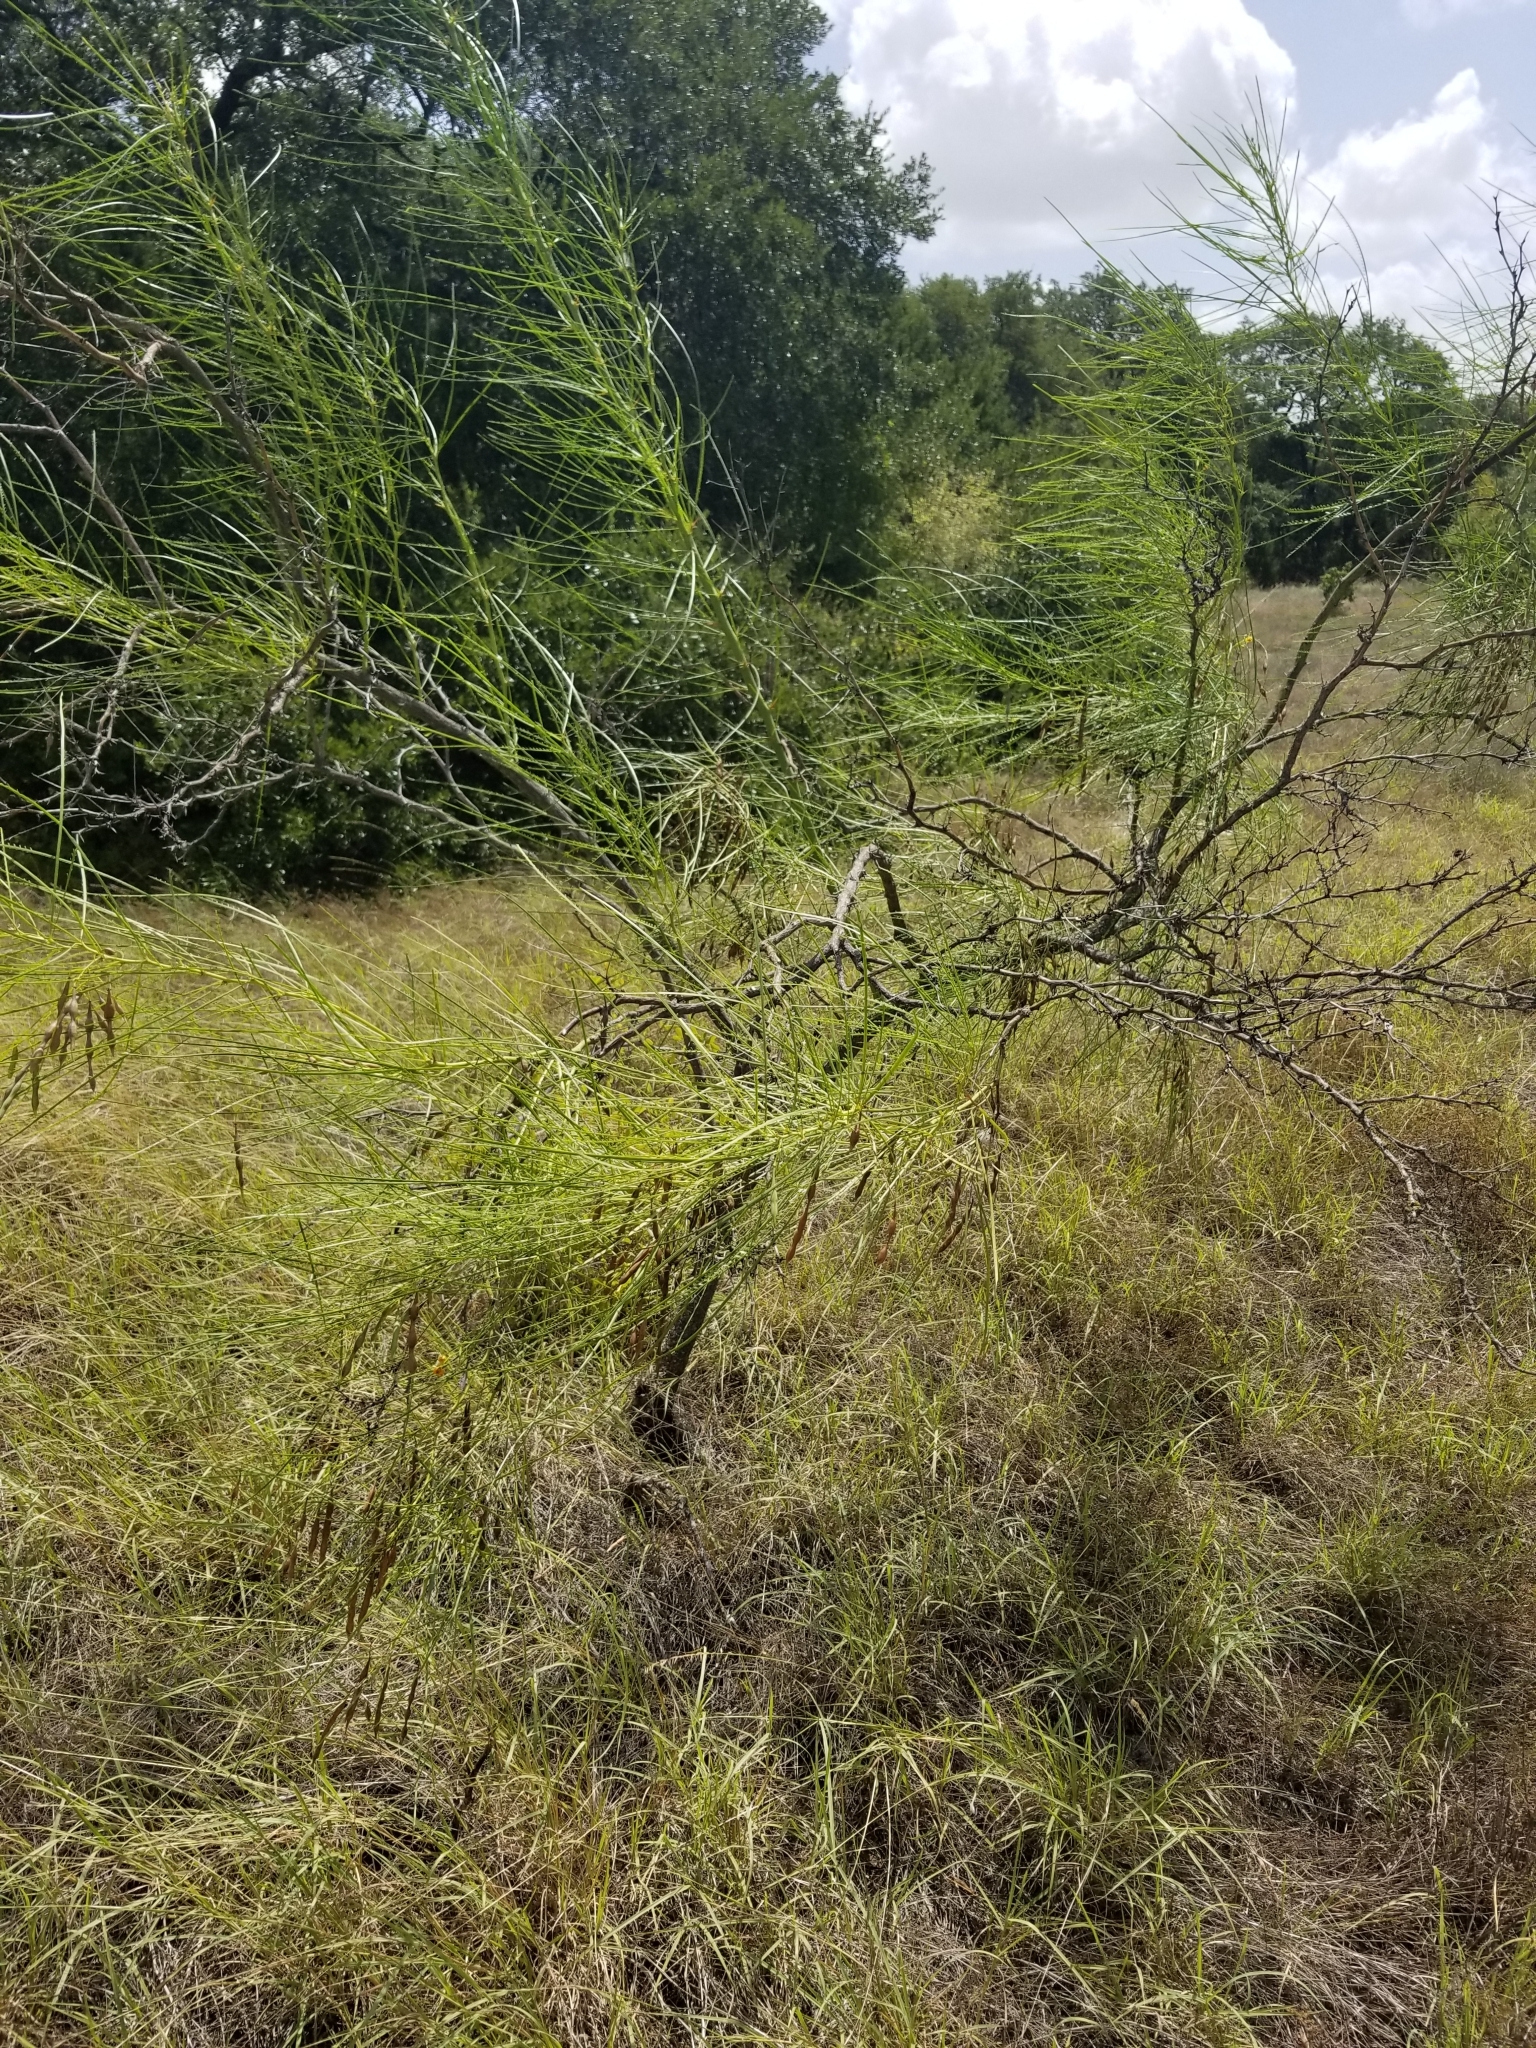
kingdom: Plantae
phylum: Tracheophyta
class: Magnoliopsida
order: Fabales
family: Fabaceae
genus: Parkinsonia
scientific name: Parkinsonia aculeata
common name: Jerusalem thorn
